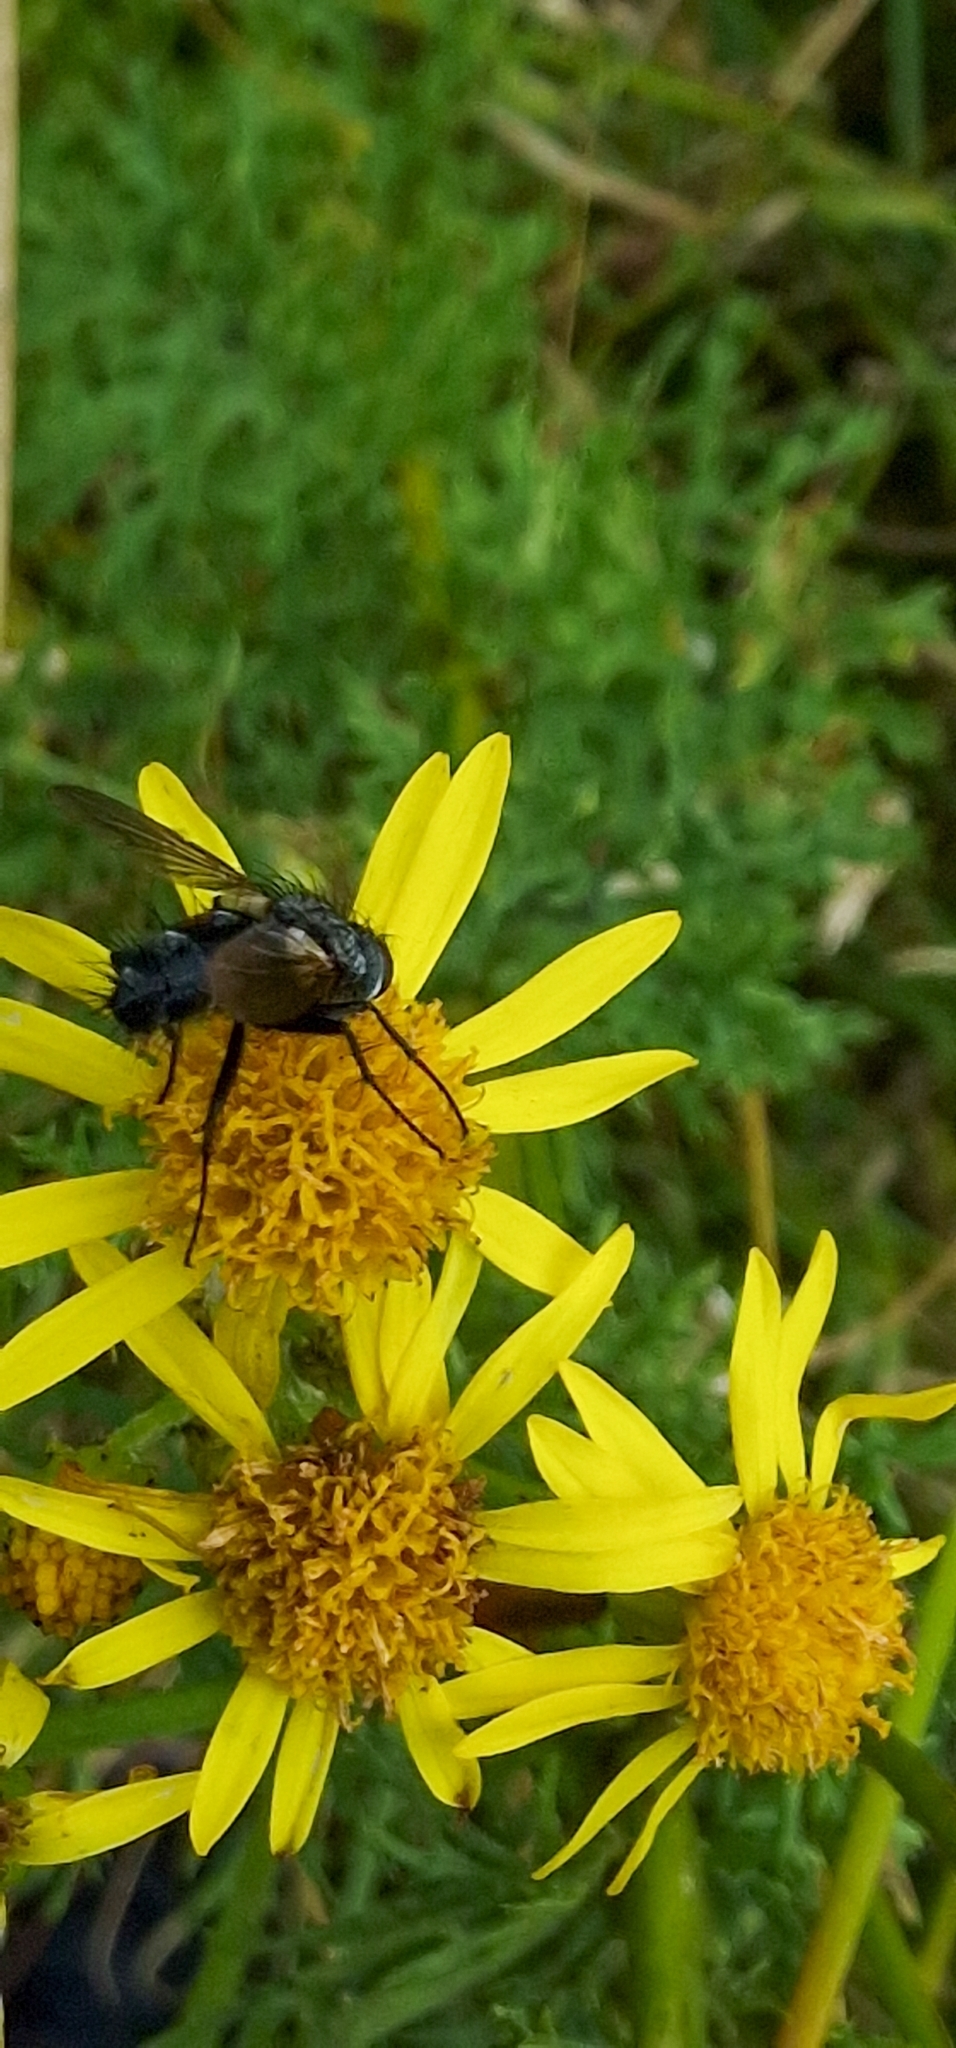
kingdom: Animalia
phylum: Arthropoda
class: Insecta
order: Diptera
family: Tachinidae
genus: Eriothrix
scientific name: Eriothrix rufomaculatus
